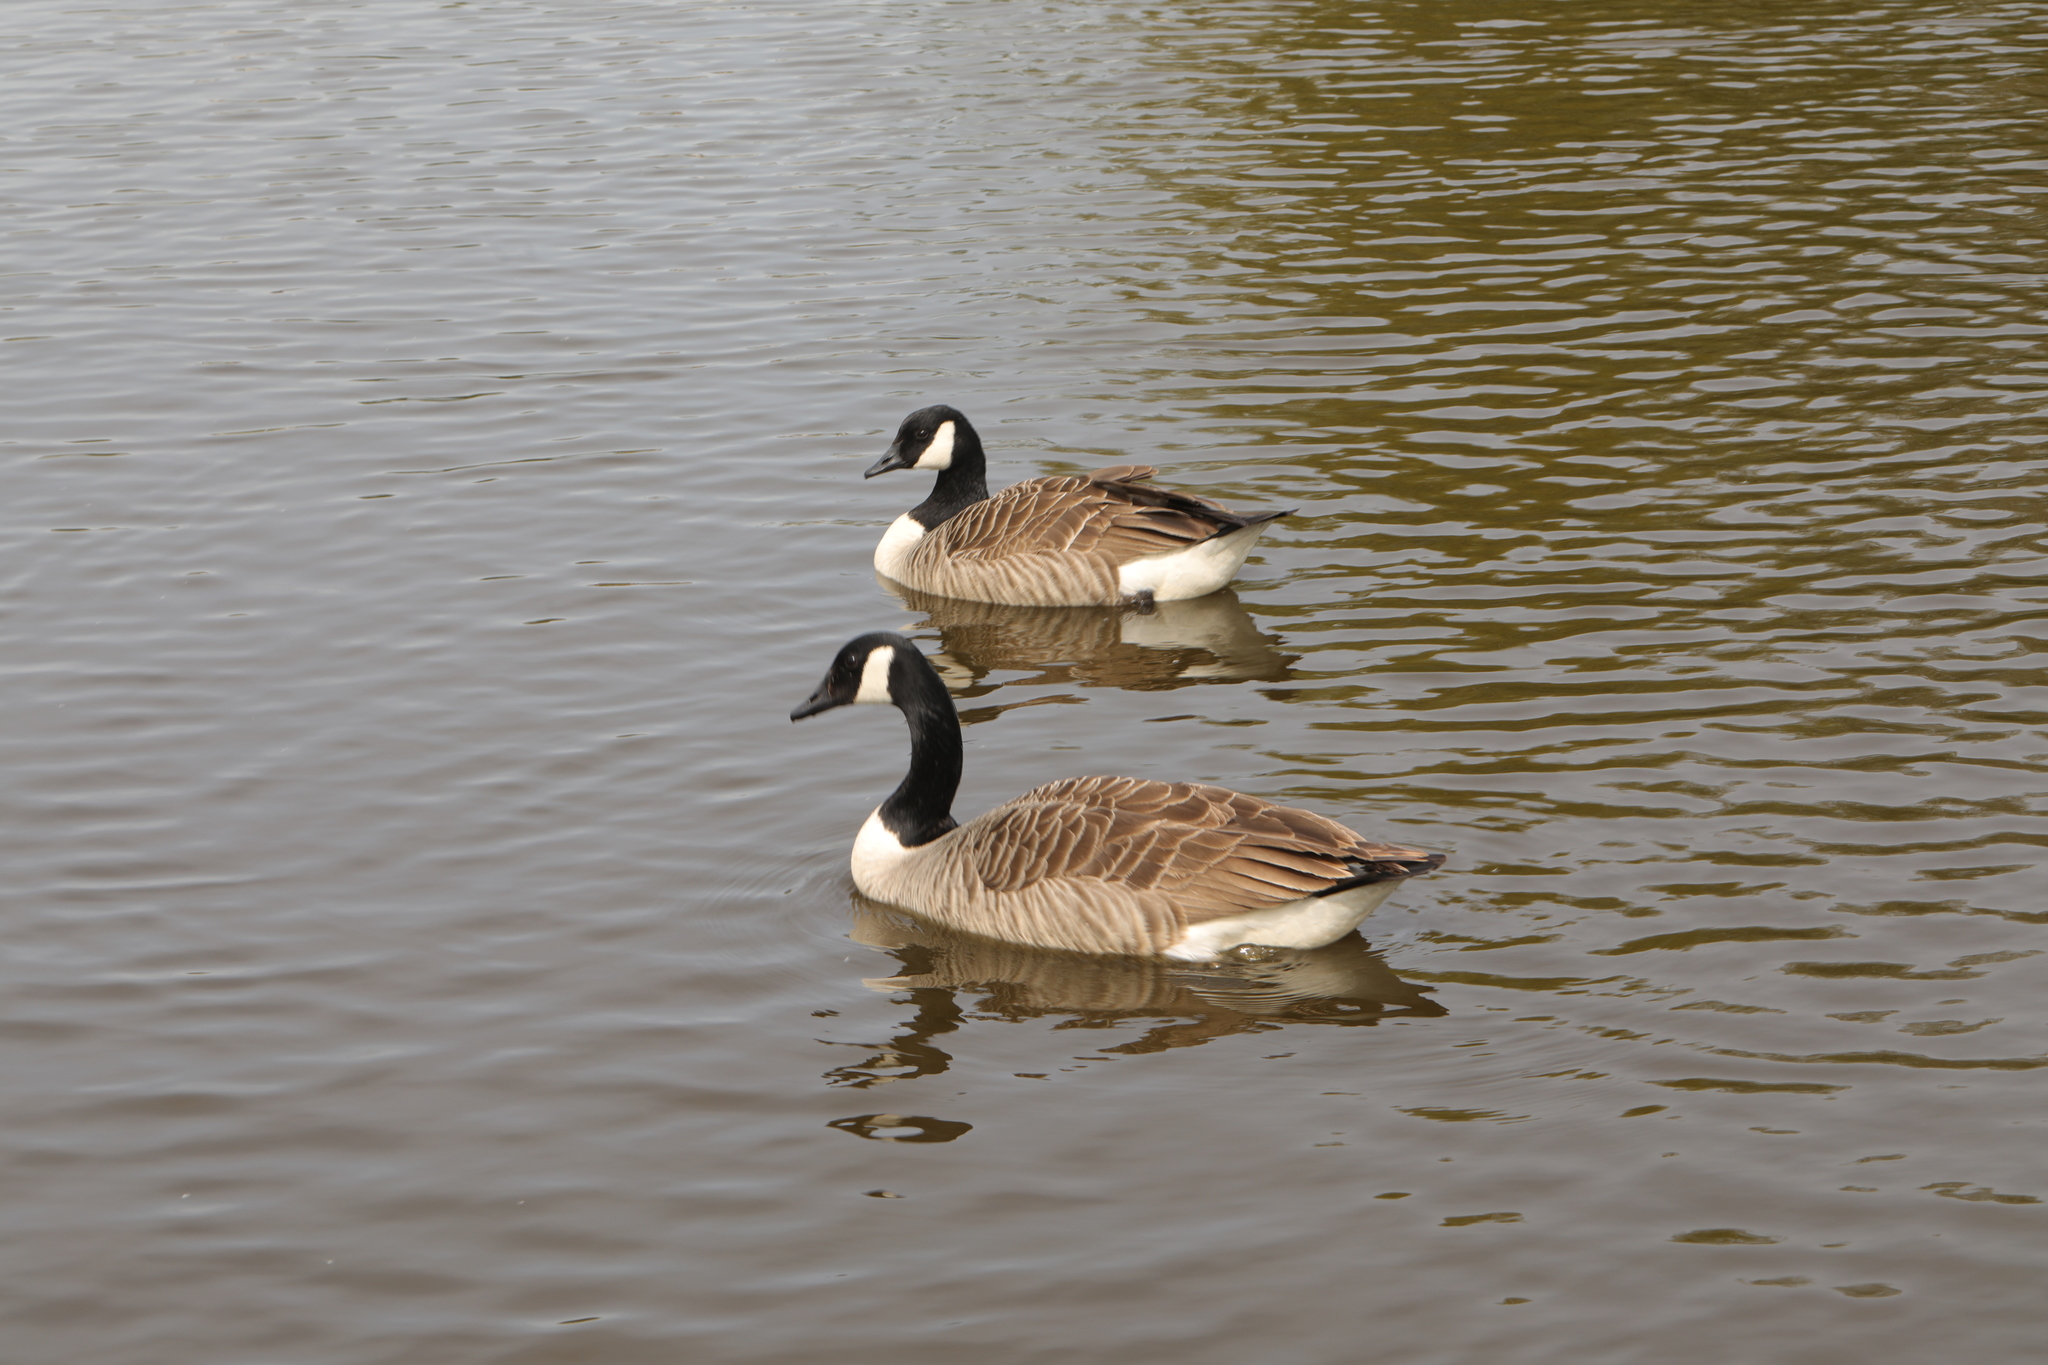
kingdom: Animalia
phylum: Chordata
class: Aves
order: Anseriformes
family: Anatidae
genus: Branta
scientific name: Branta canadensis
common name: Canada goose
